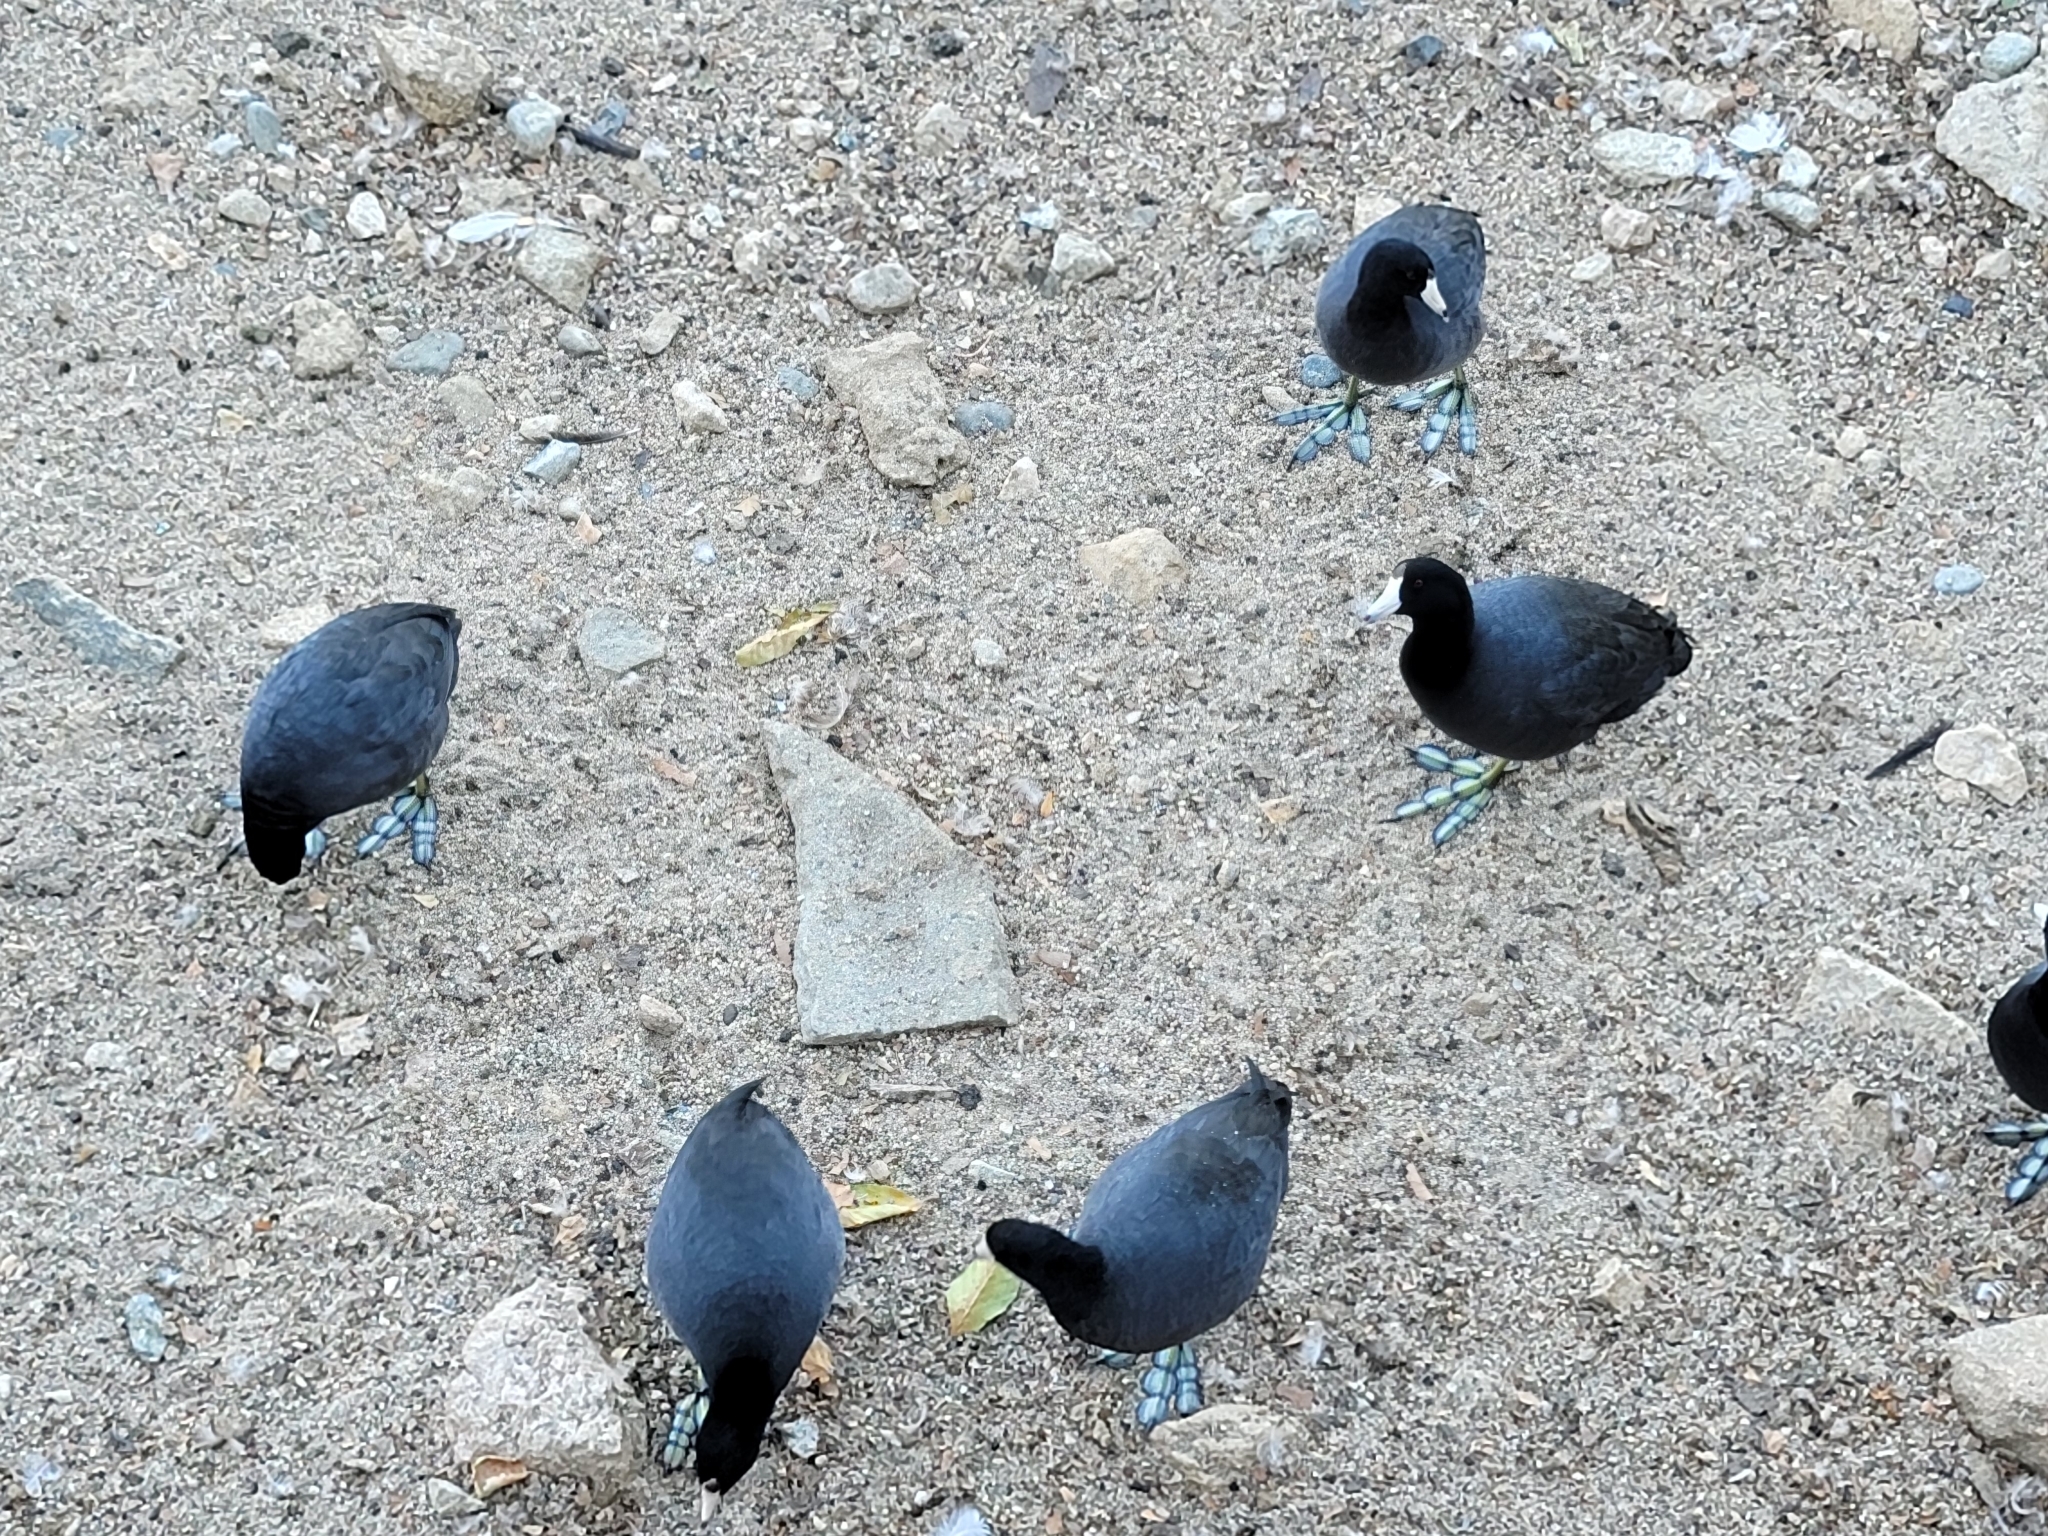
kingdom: Animalia
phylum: Chordata
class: Aves
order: Gruiformes
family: Rallidae
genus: Fulica
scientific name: Fulica americana
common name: American coot
